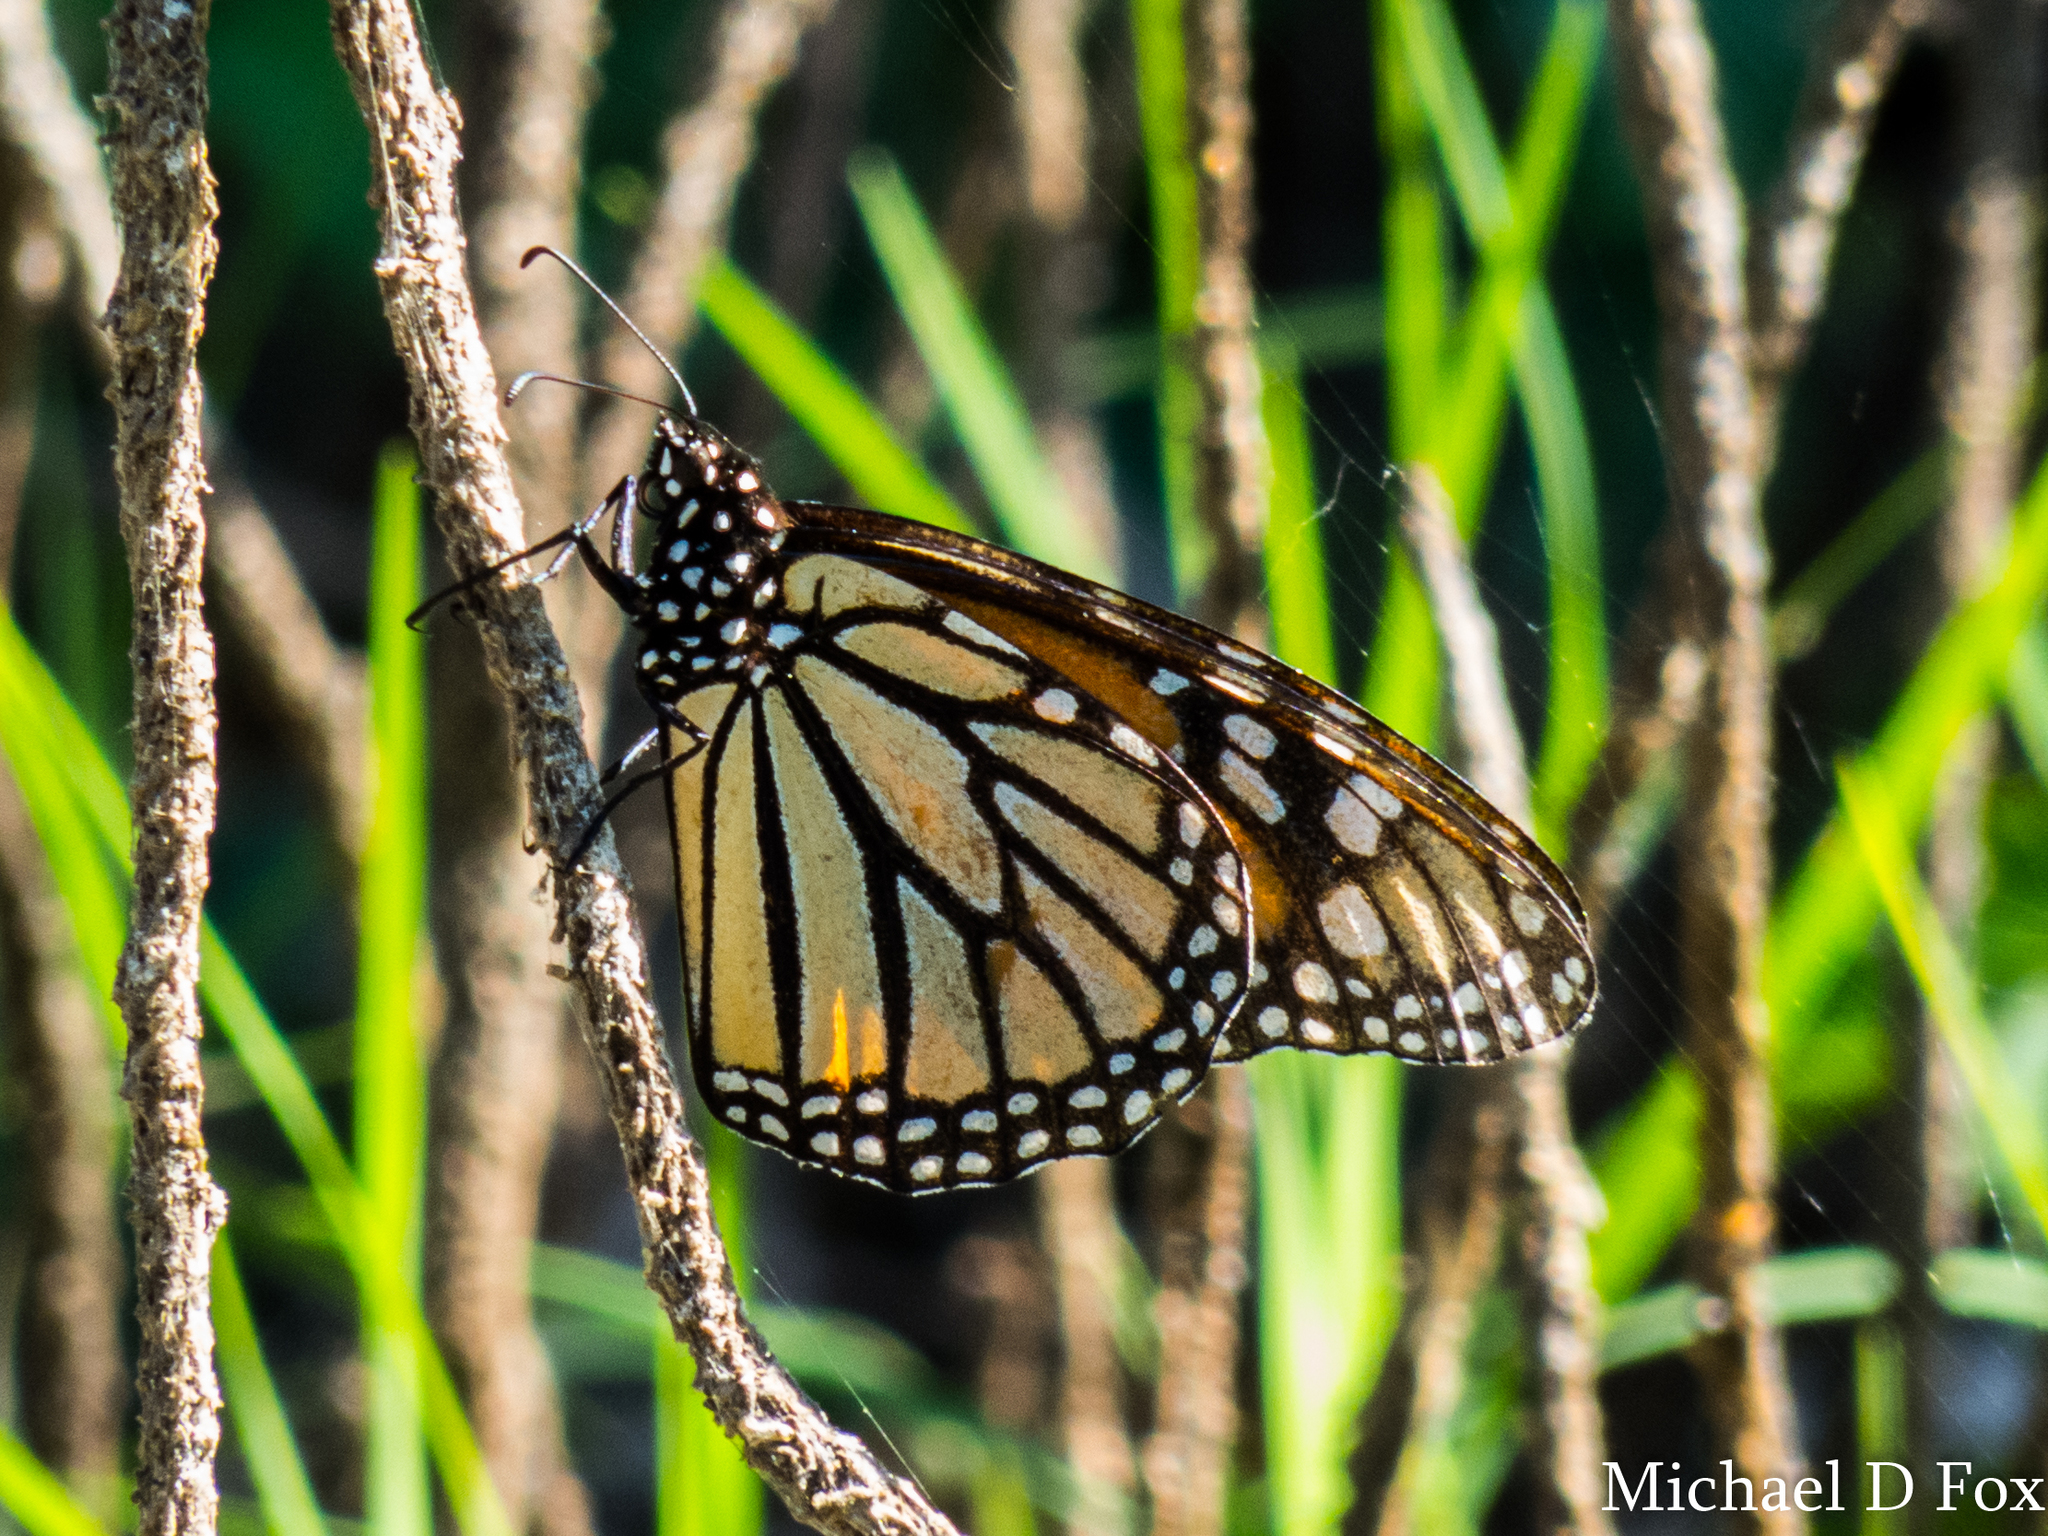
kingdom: Animalia
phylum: Arthropoda
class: Insecta
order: Lepidoptera
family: Nymphalidae
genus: Danaus
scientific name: Danaus plexippus
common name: Monarch
